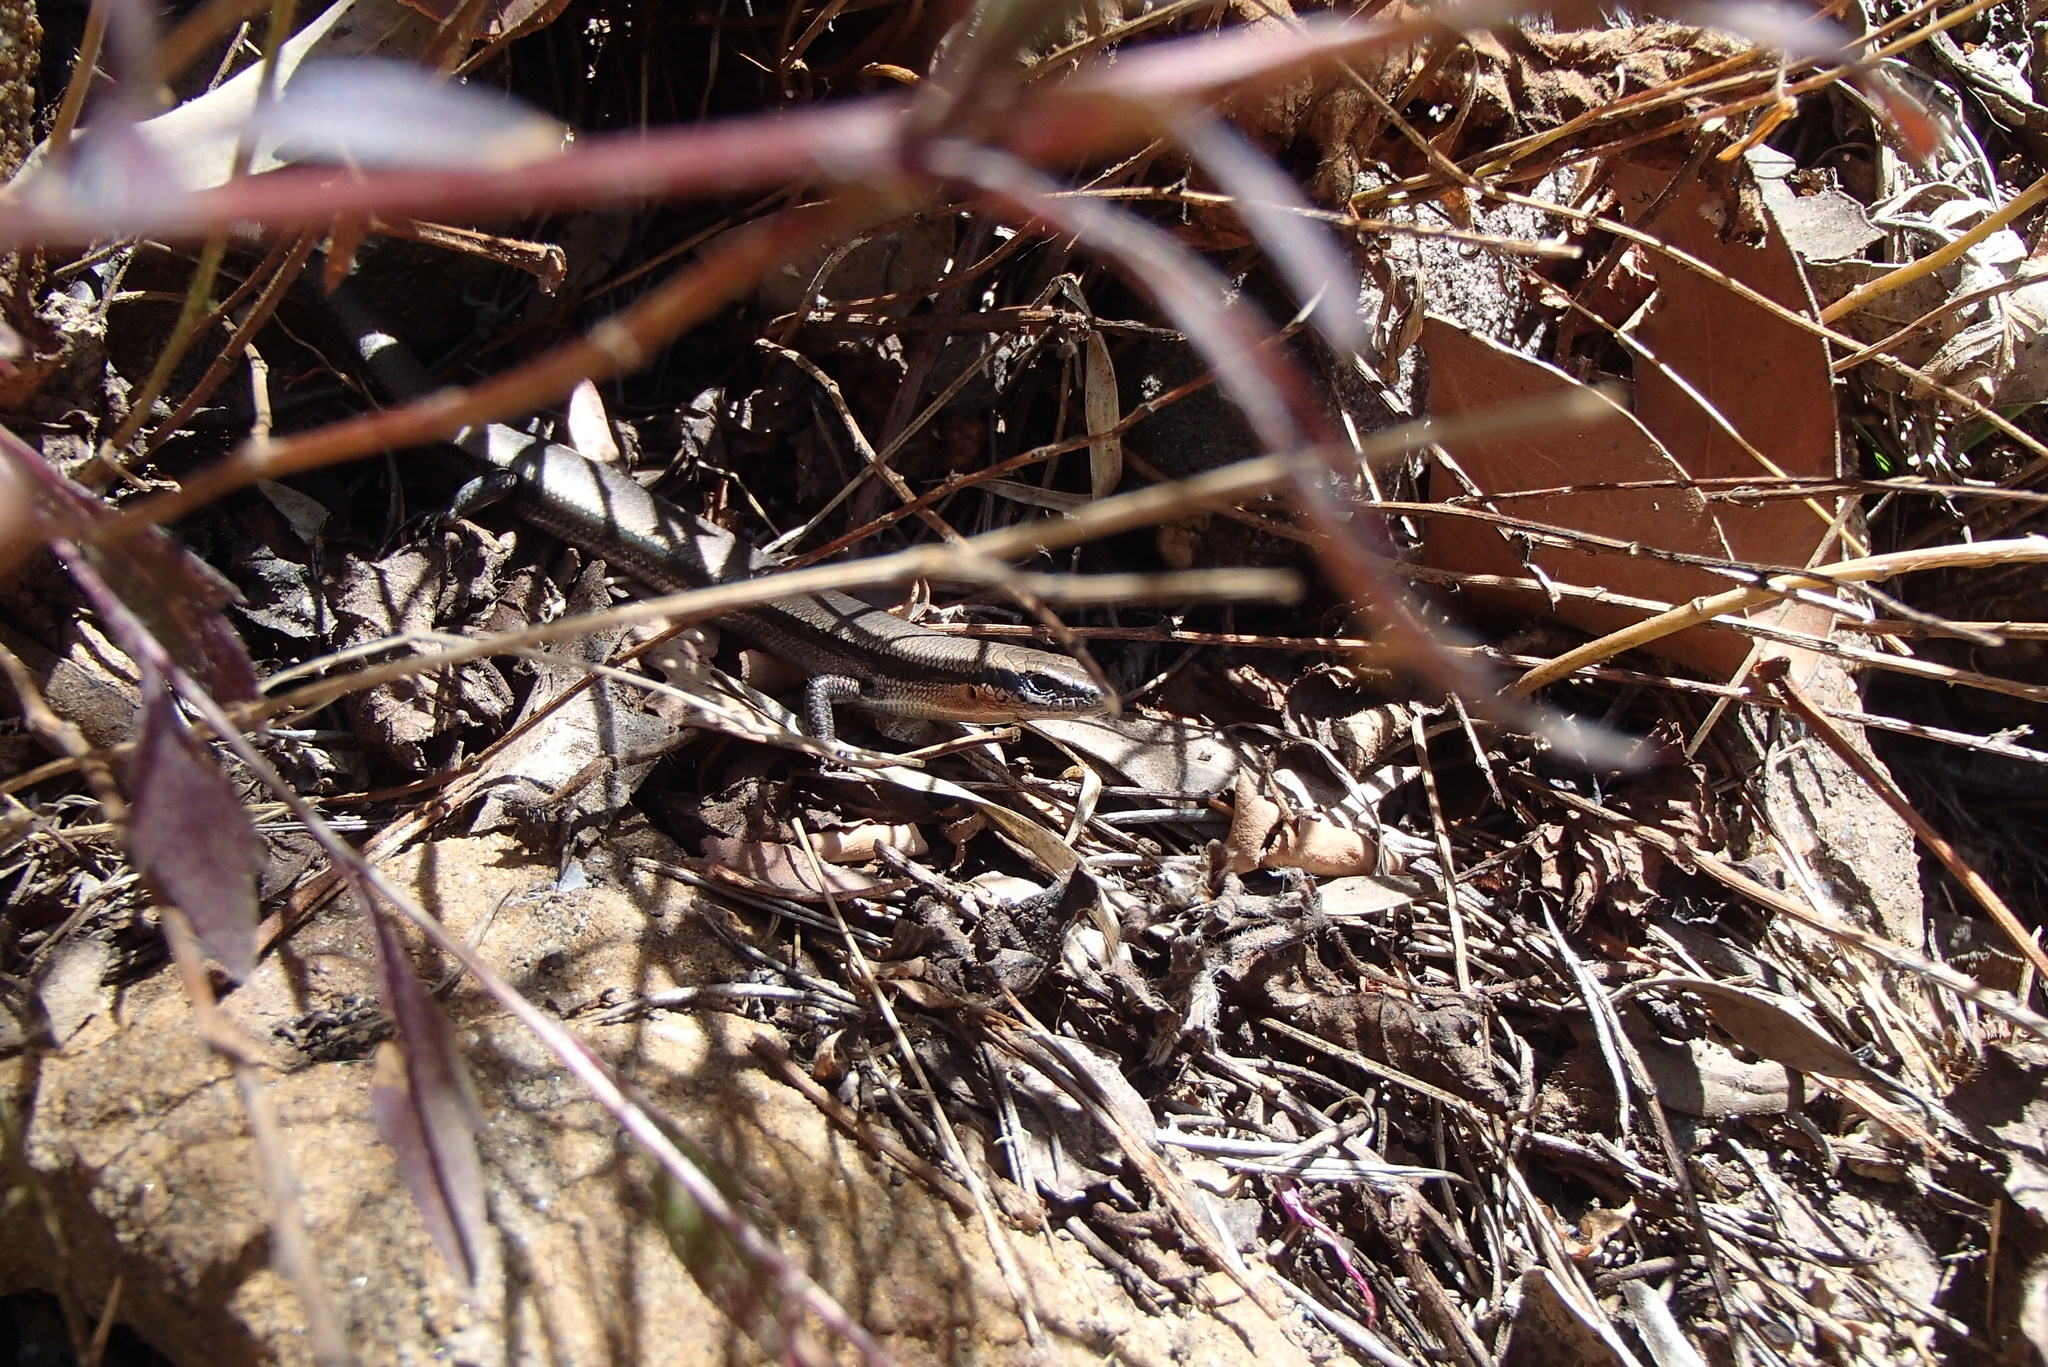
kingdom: Animalia
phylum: Chordata
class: Squamata
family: Scincidae
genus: Acritoscincus
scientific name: Acritoscincus platynotus
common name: Red-throated cool-skink
